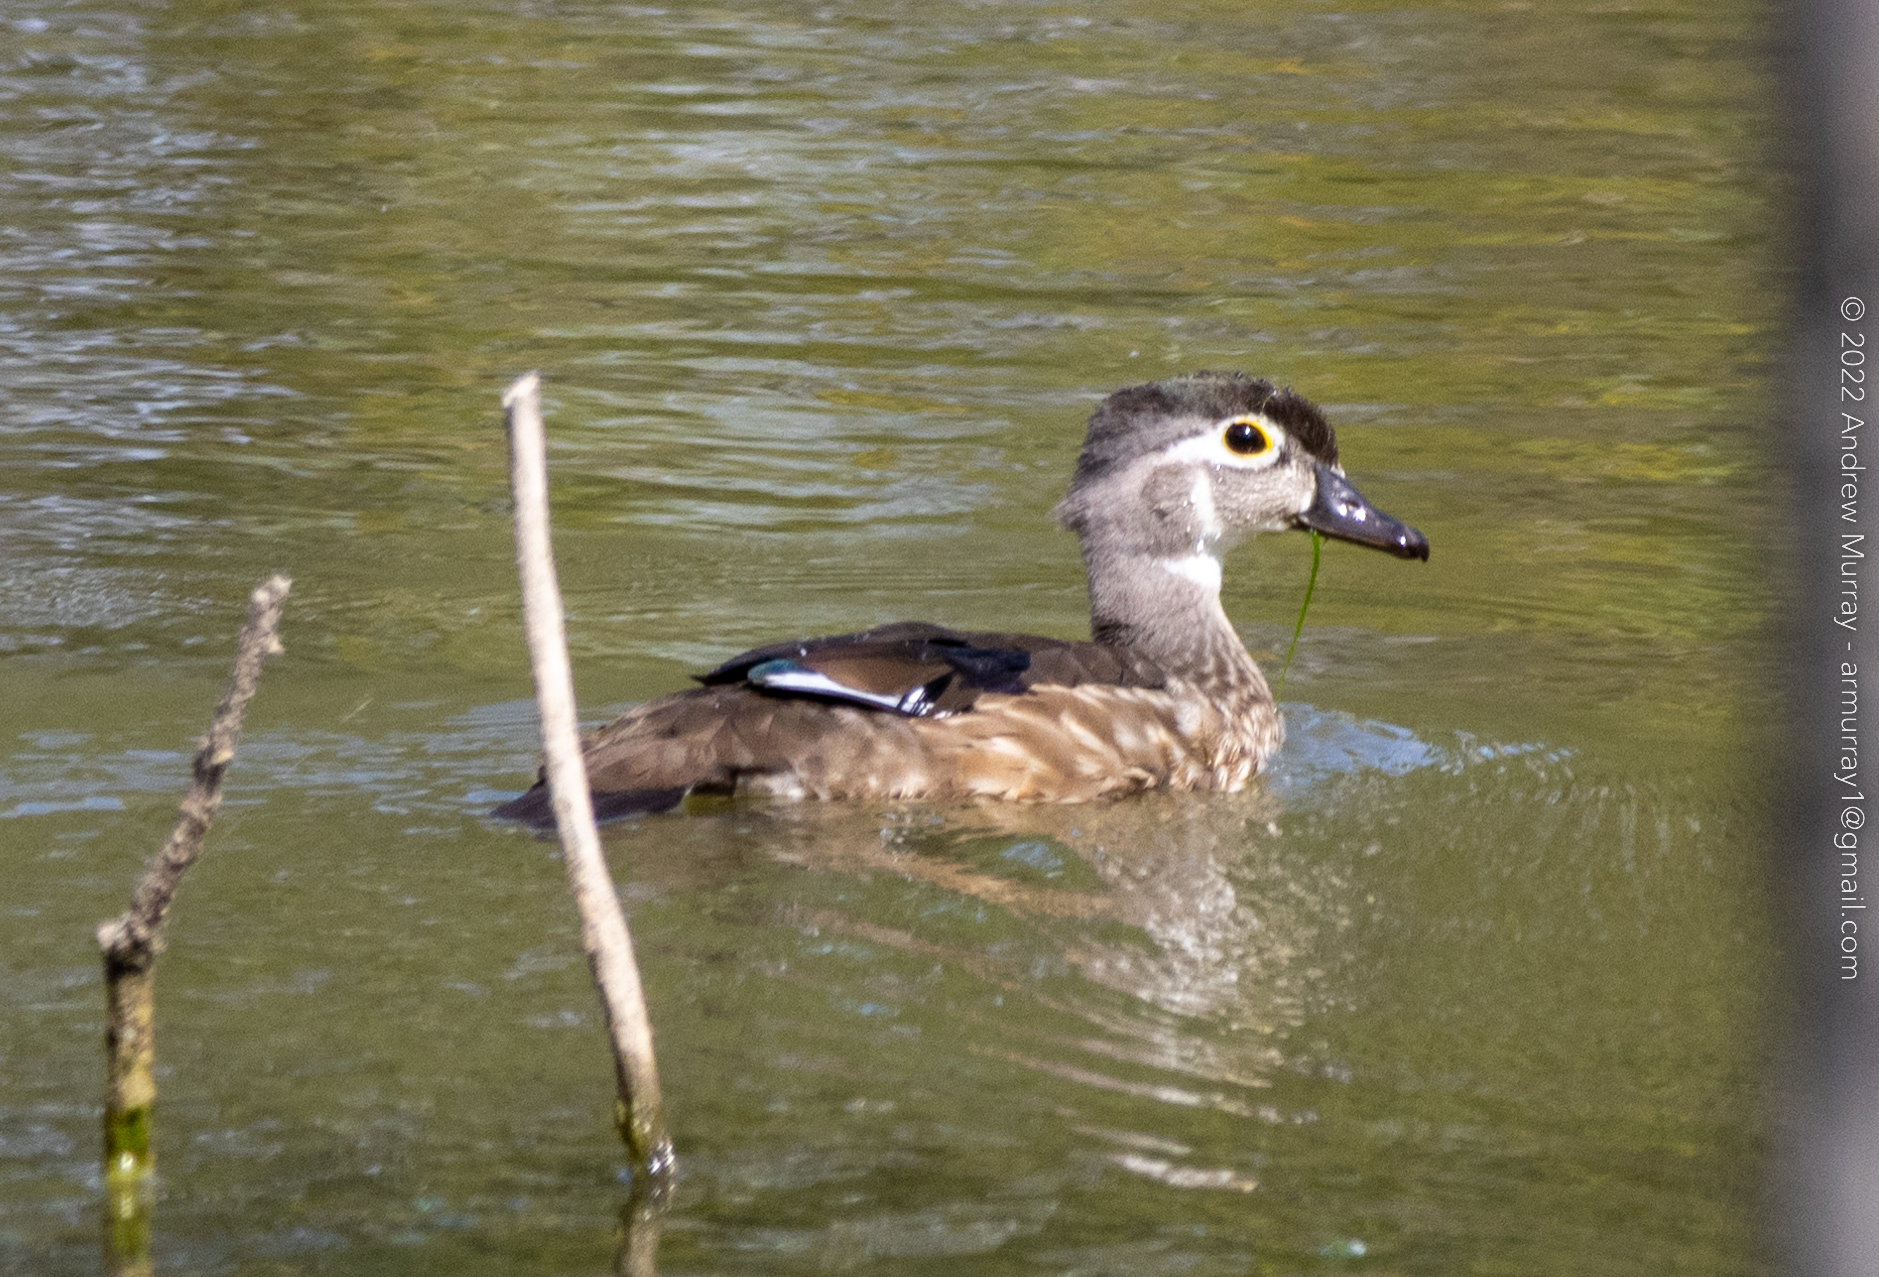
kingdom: Animalia
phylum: Chordata
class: Aves
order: Anseriformes
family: Anatidae
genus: Aix
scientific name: Aix sponsa
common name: Wood duck
